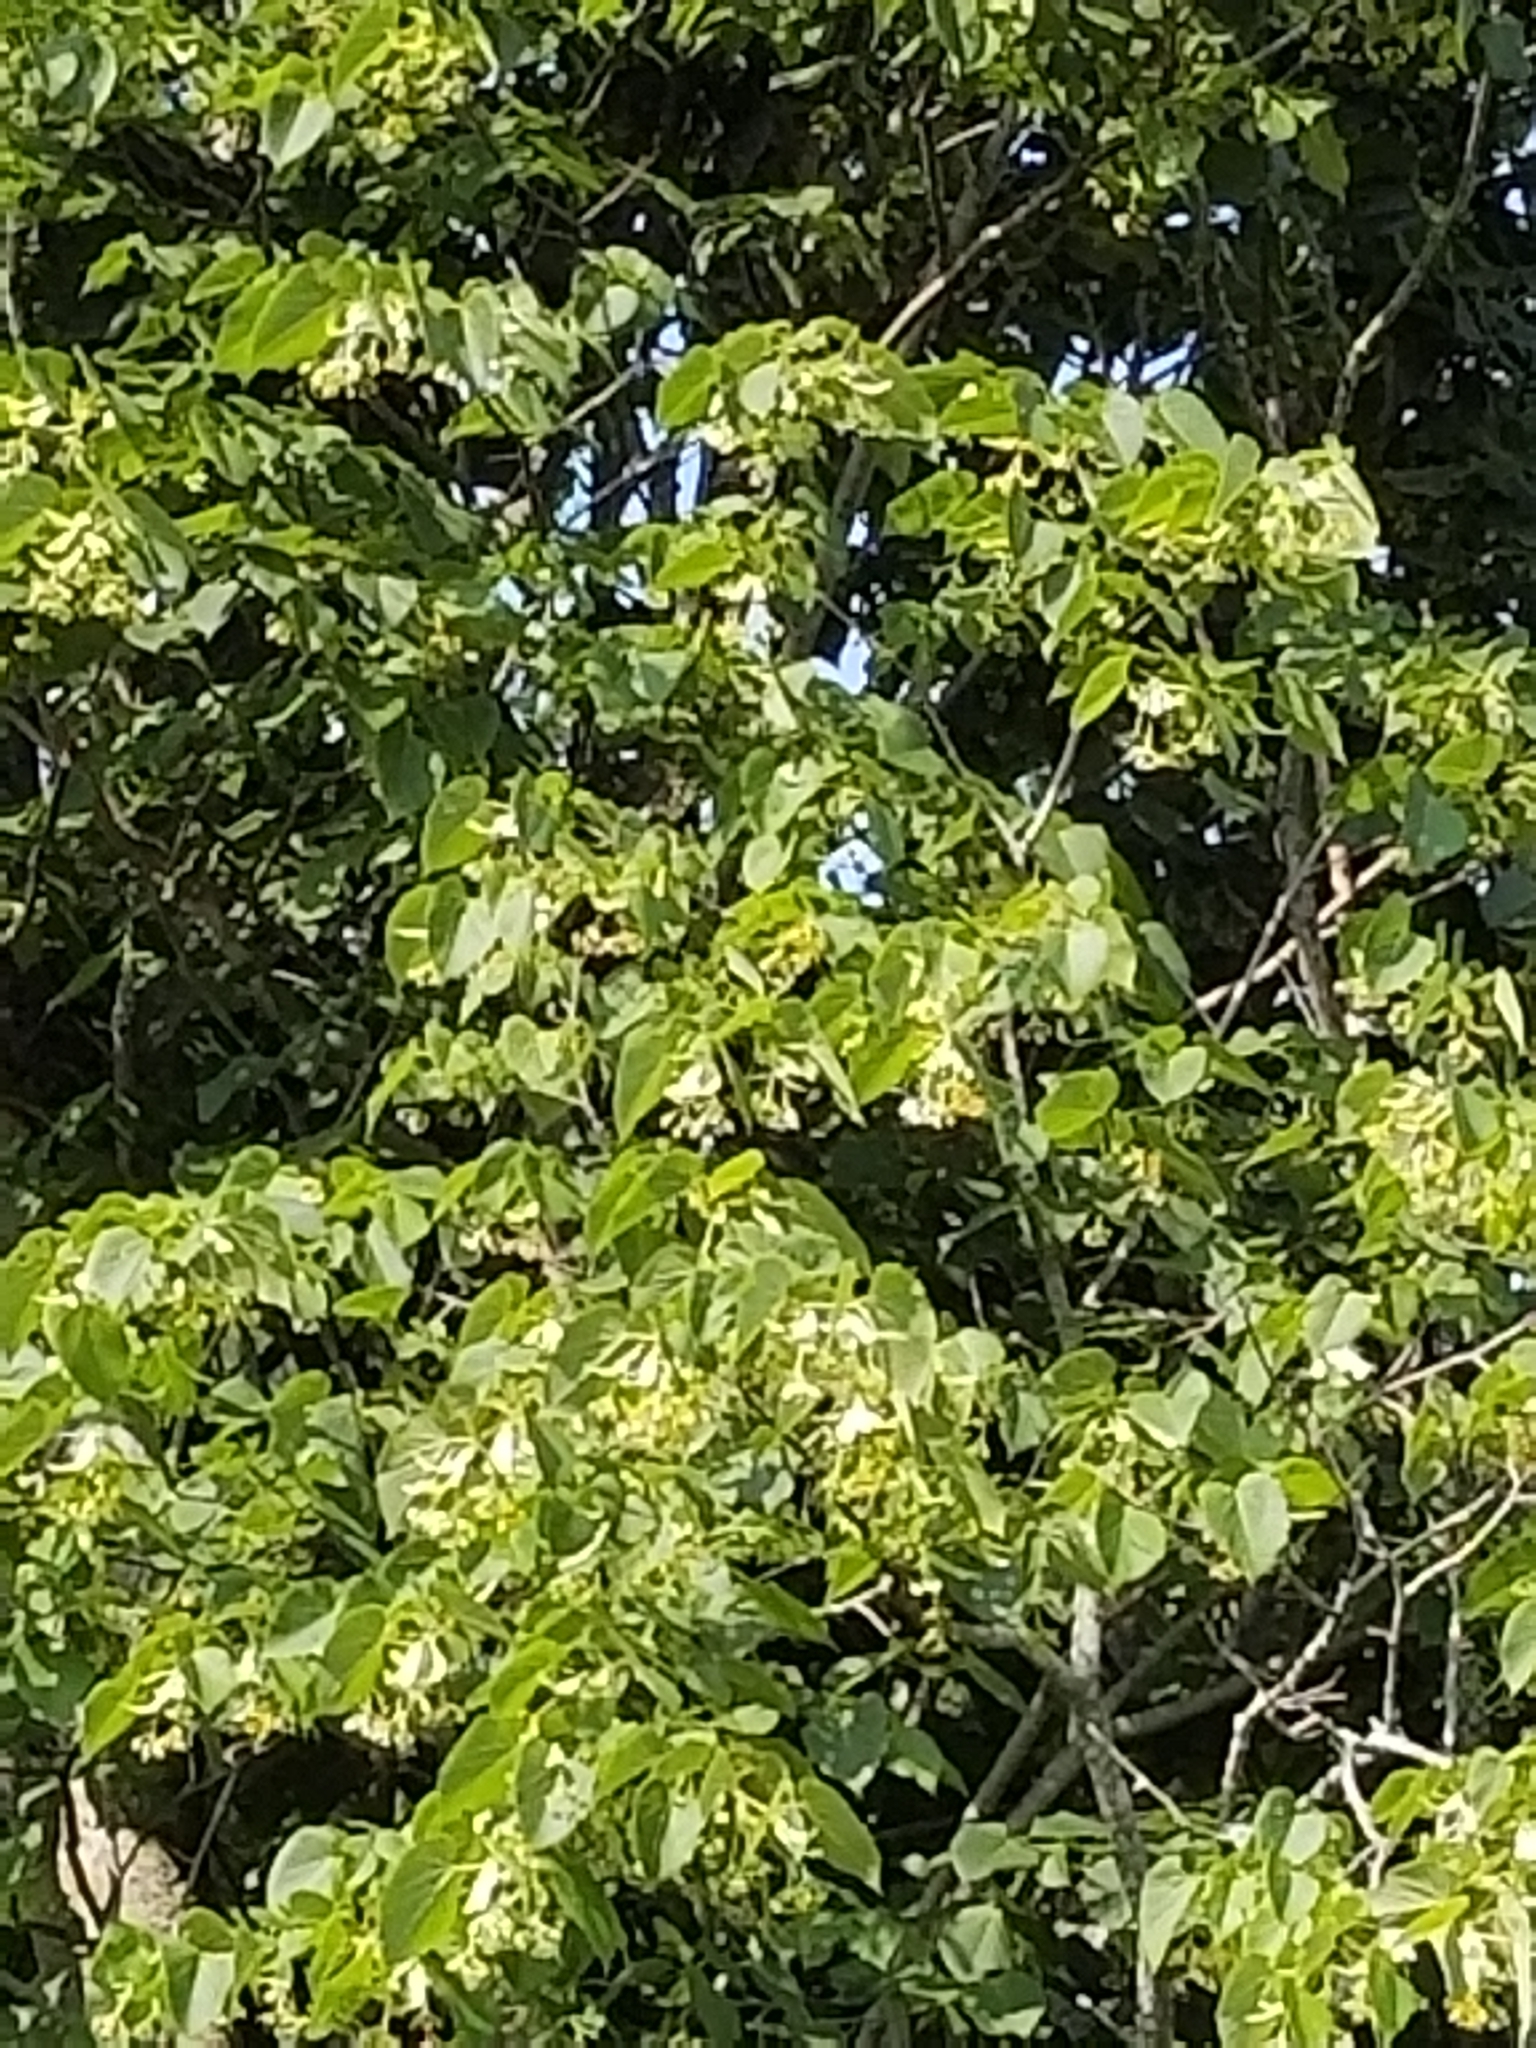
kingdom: Plantae
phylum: Tracheophyta
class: Magnoliopsida
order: Malvales
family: Malvaceae
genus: Tilia
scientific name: Tilia americana
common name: Basswood
